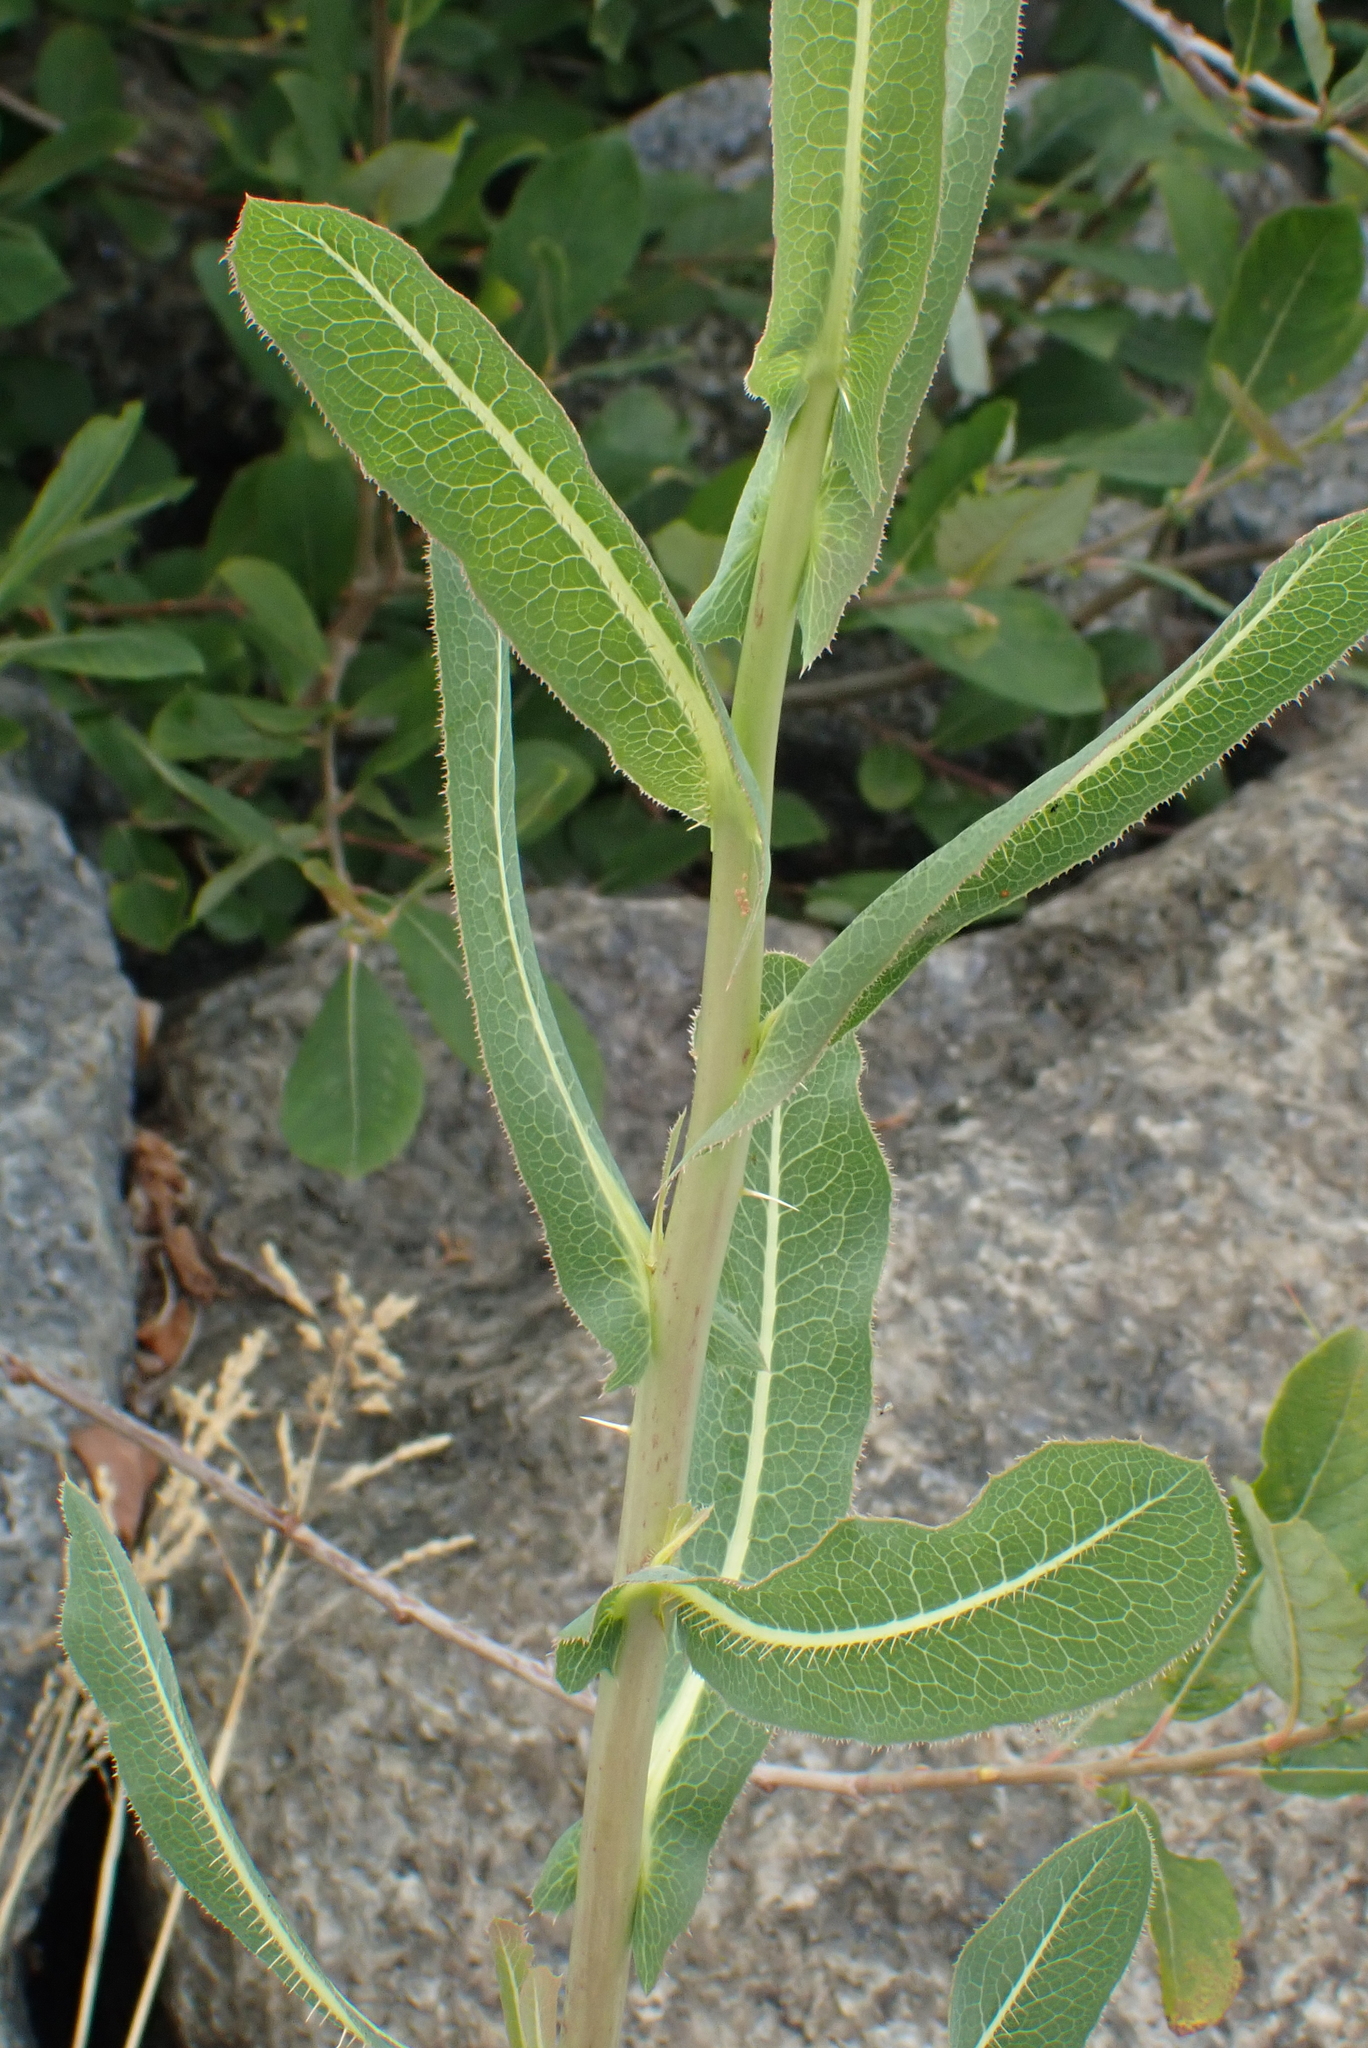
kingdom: Plantae
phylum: Tracheophyta
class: Magnoliopsida
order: Asterales
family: Asteraceae
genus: Lactuca
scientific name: Lactuca serriola
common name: Prickly lettuce
